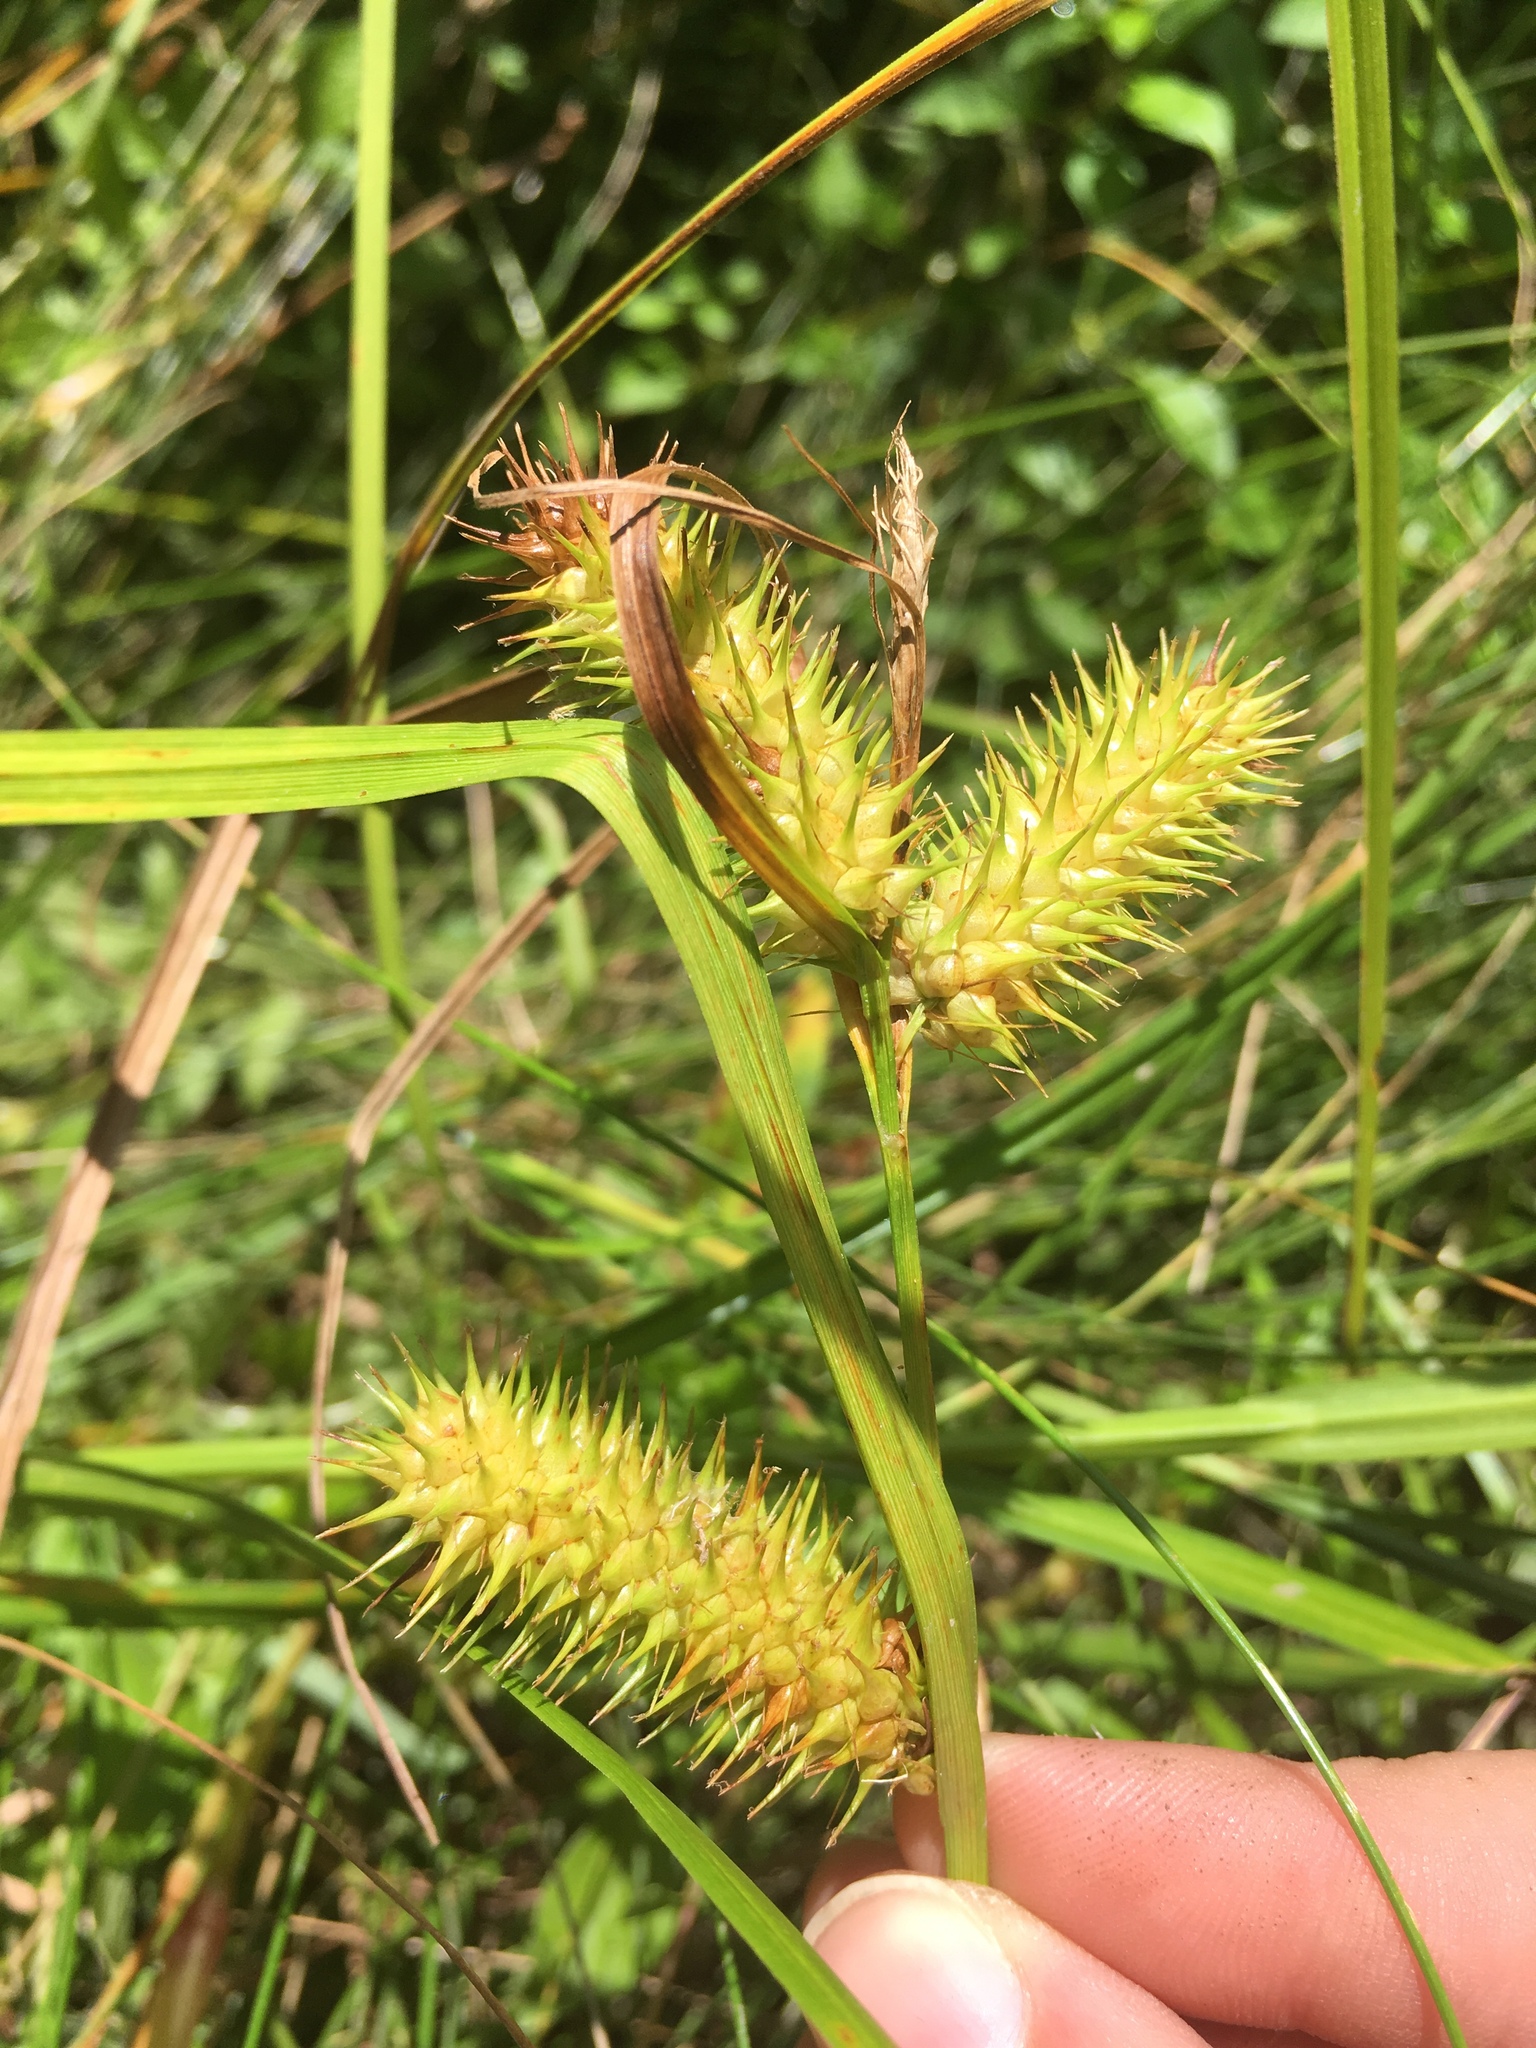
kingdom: Plantae
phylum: Tracheophyta
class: Liliopsida
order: Poales
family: Cyperaceae
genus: Carex
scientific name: Carex lurida
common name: Sallow sedge
